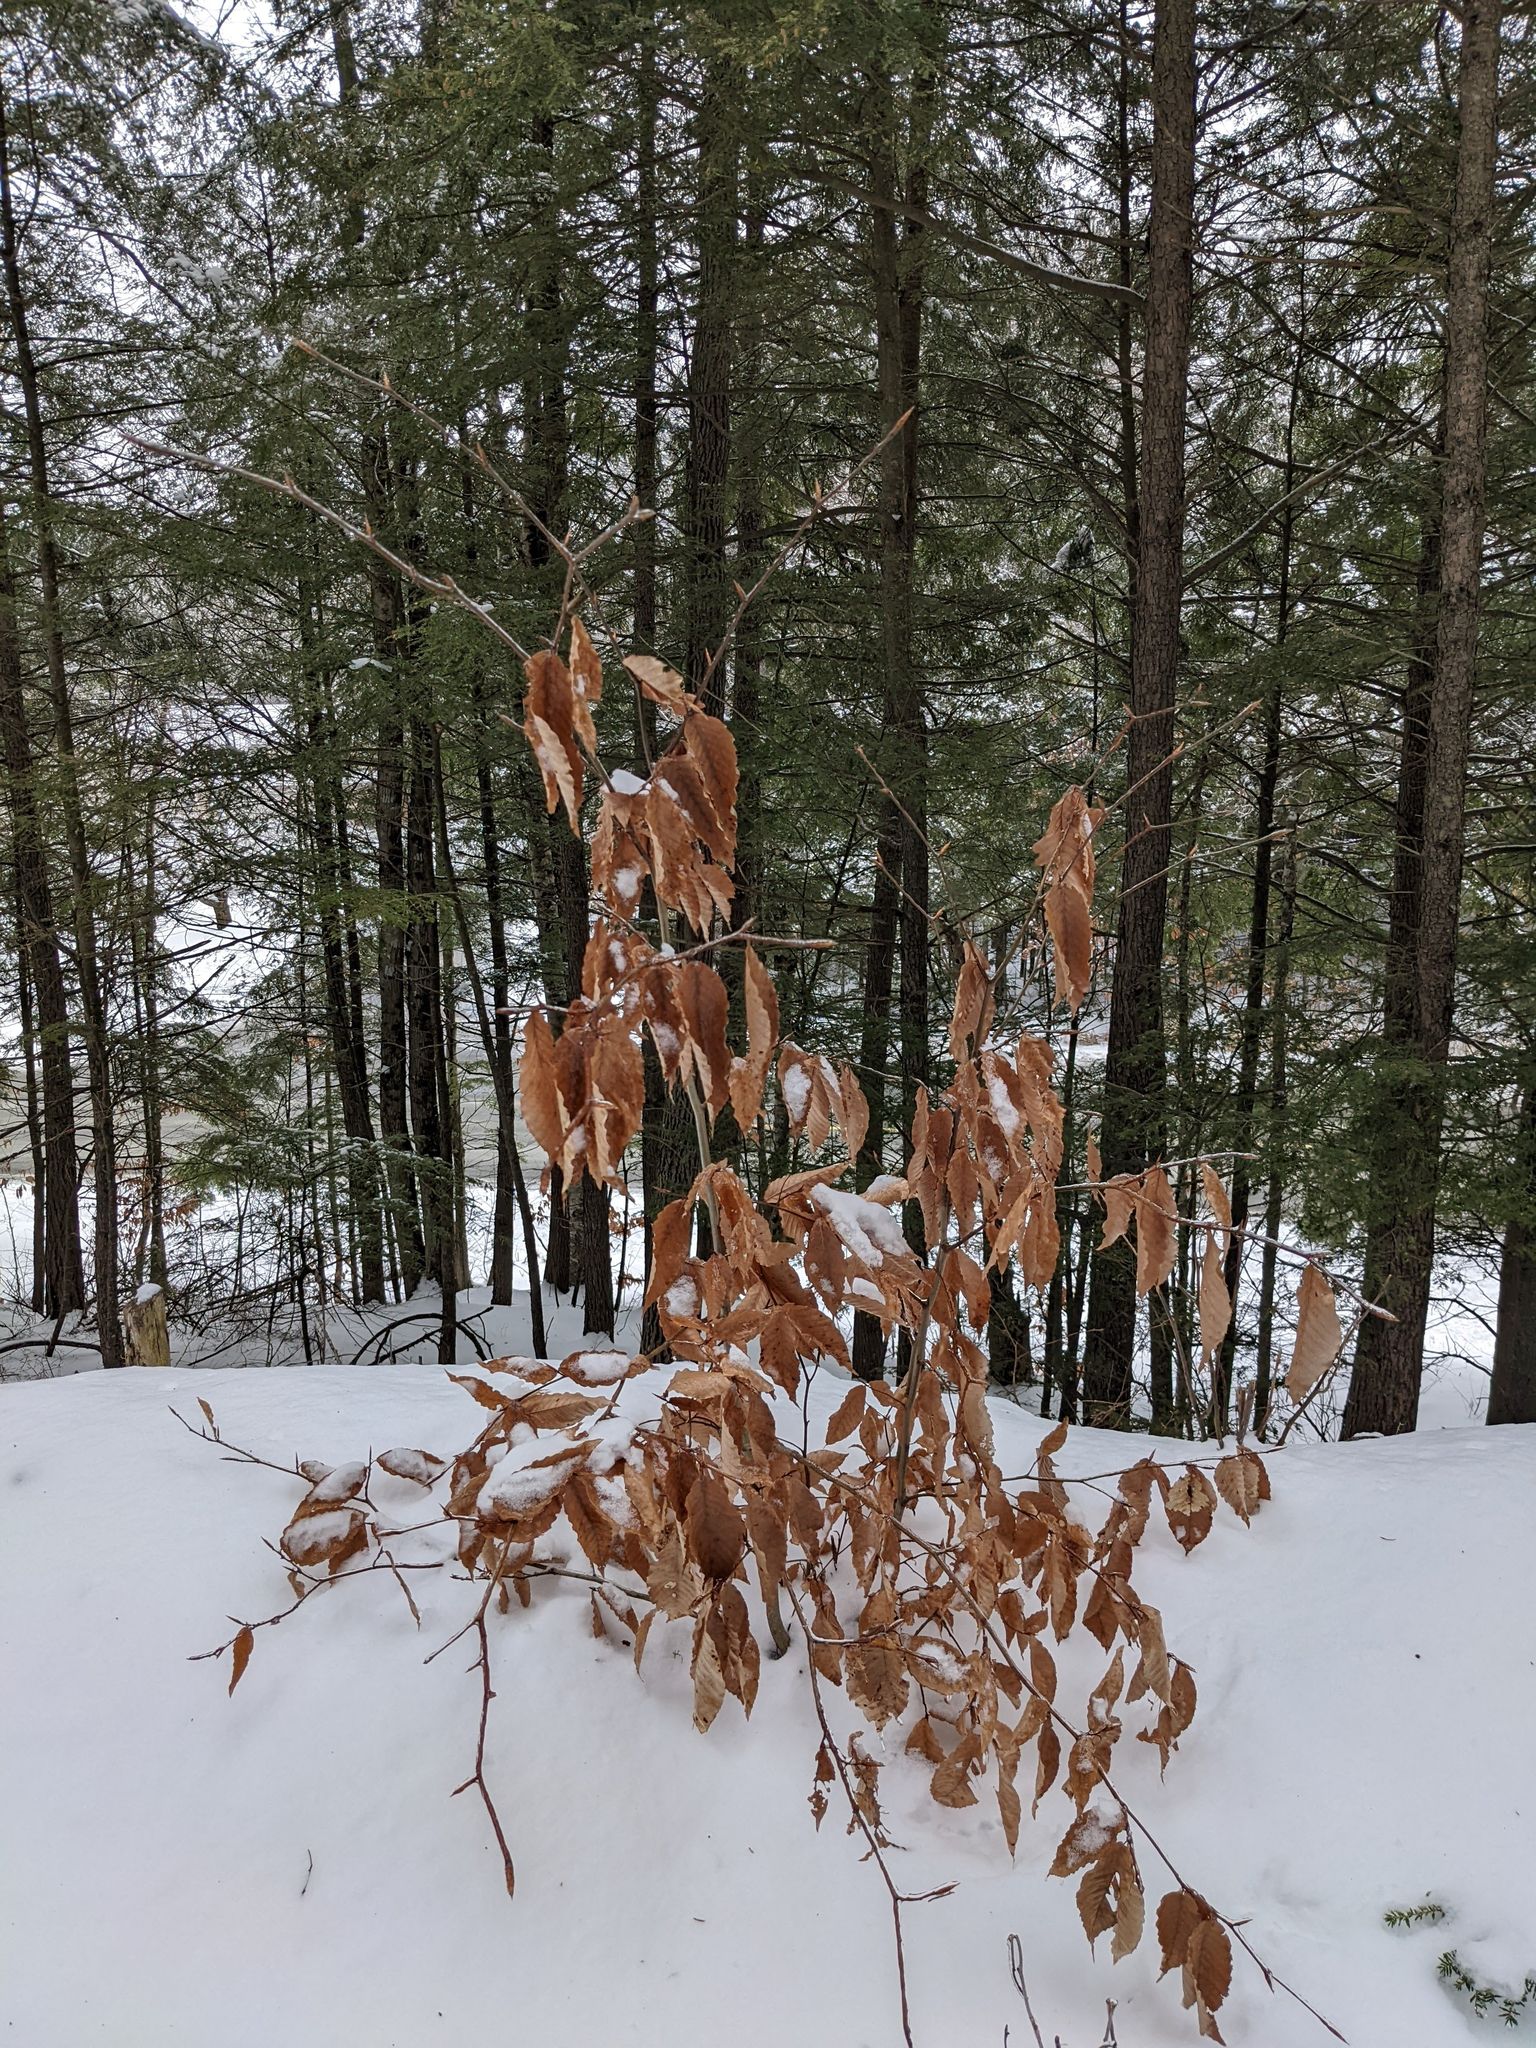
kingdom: Plantae
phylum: Tracheophyta
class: Magnoliopsida
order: Fagales
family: Fagaceae
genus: Fagus
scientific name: Fagus grandifolia
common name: American beech
